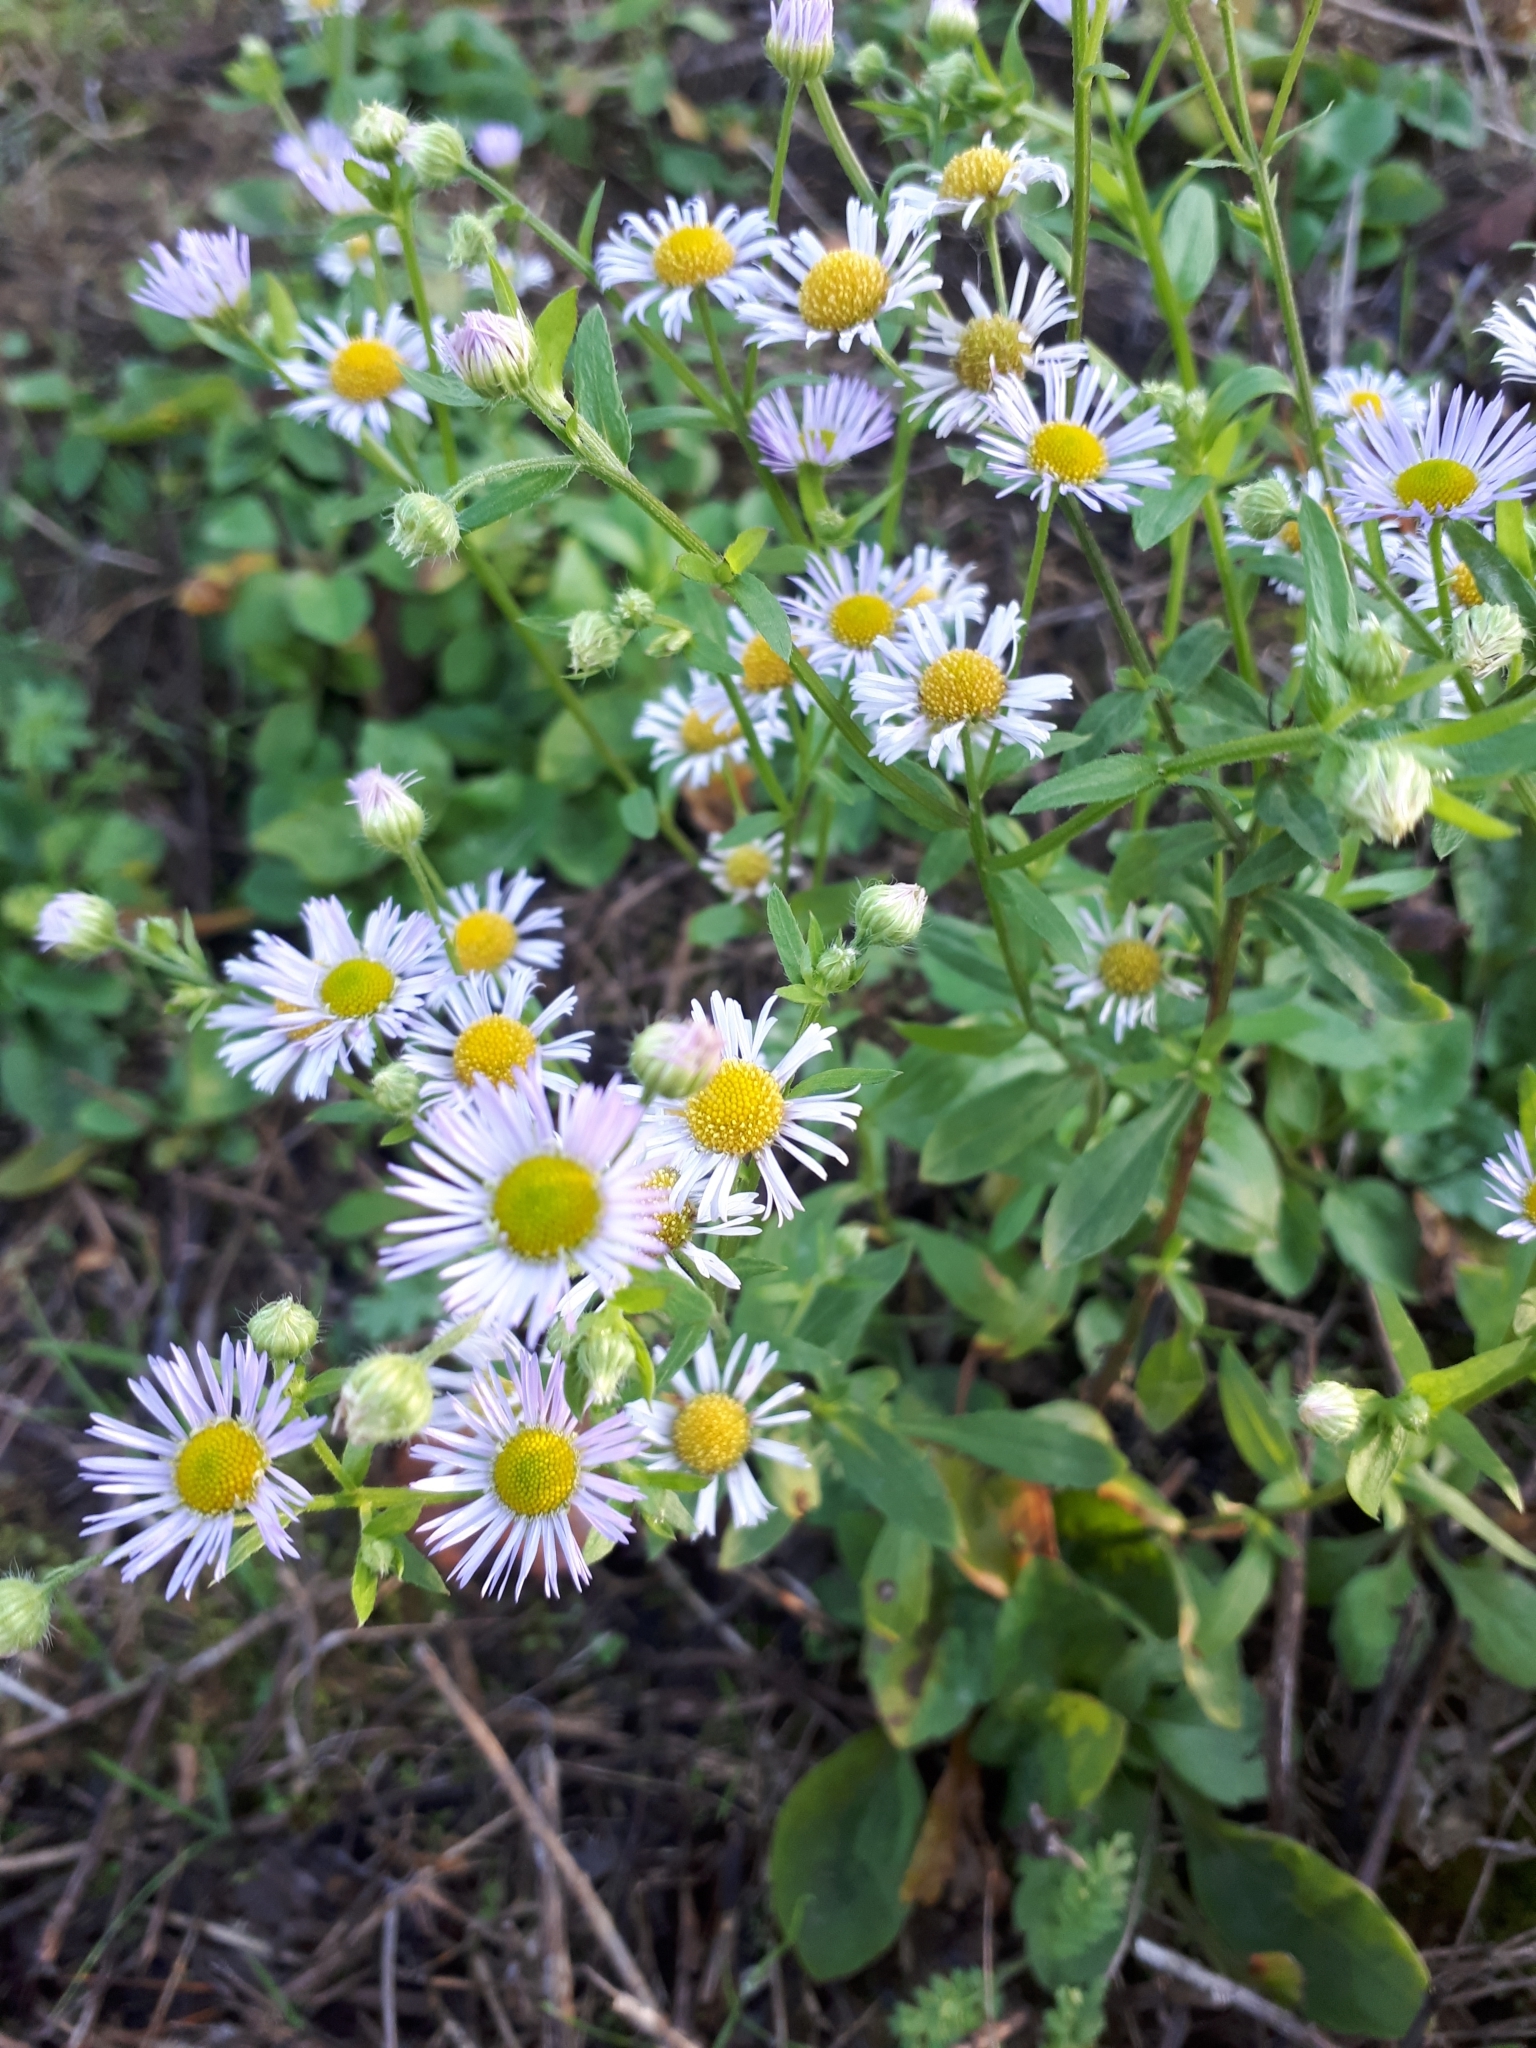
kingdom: Plantae
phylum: Tracheophyta
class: Magnoliopsida
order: Asterales
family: Asteraceae
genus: Erigeron
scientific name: Erigeron annuus
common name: Tall fleabane
